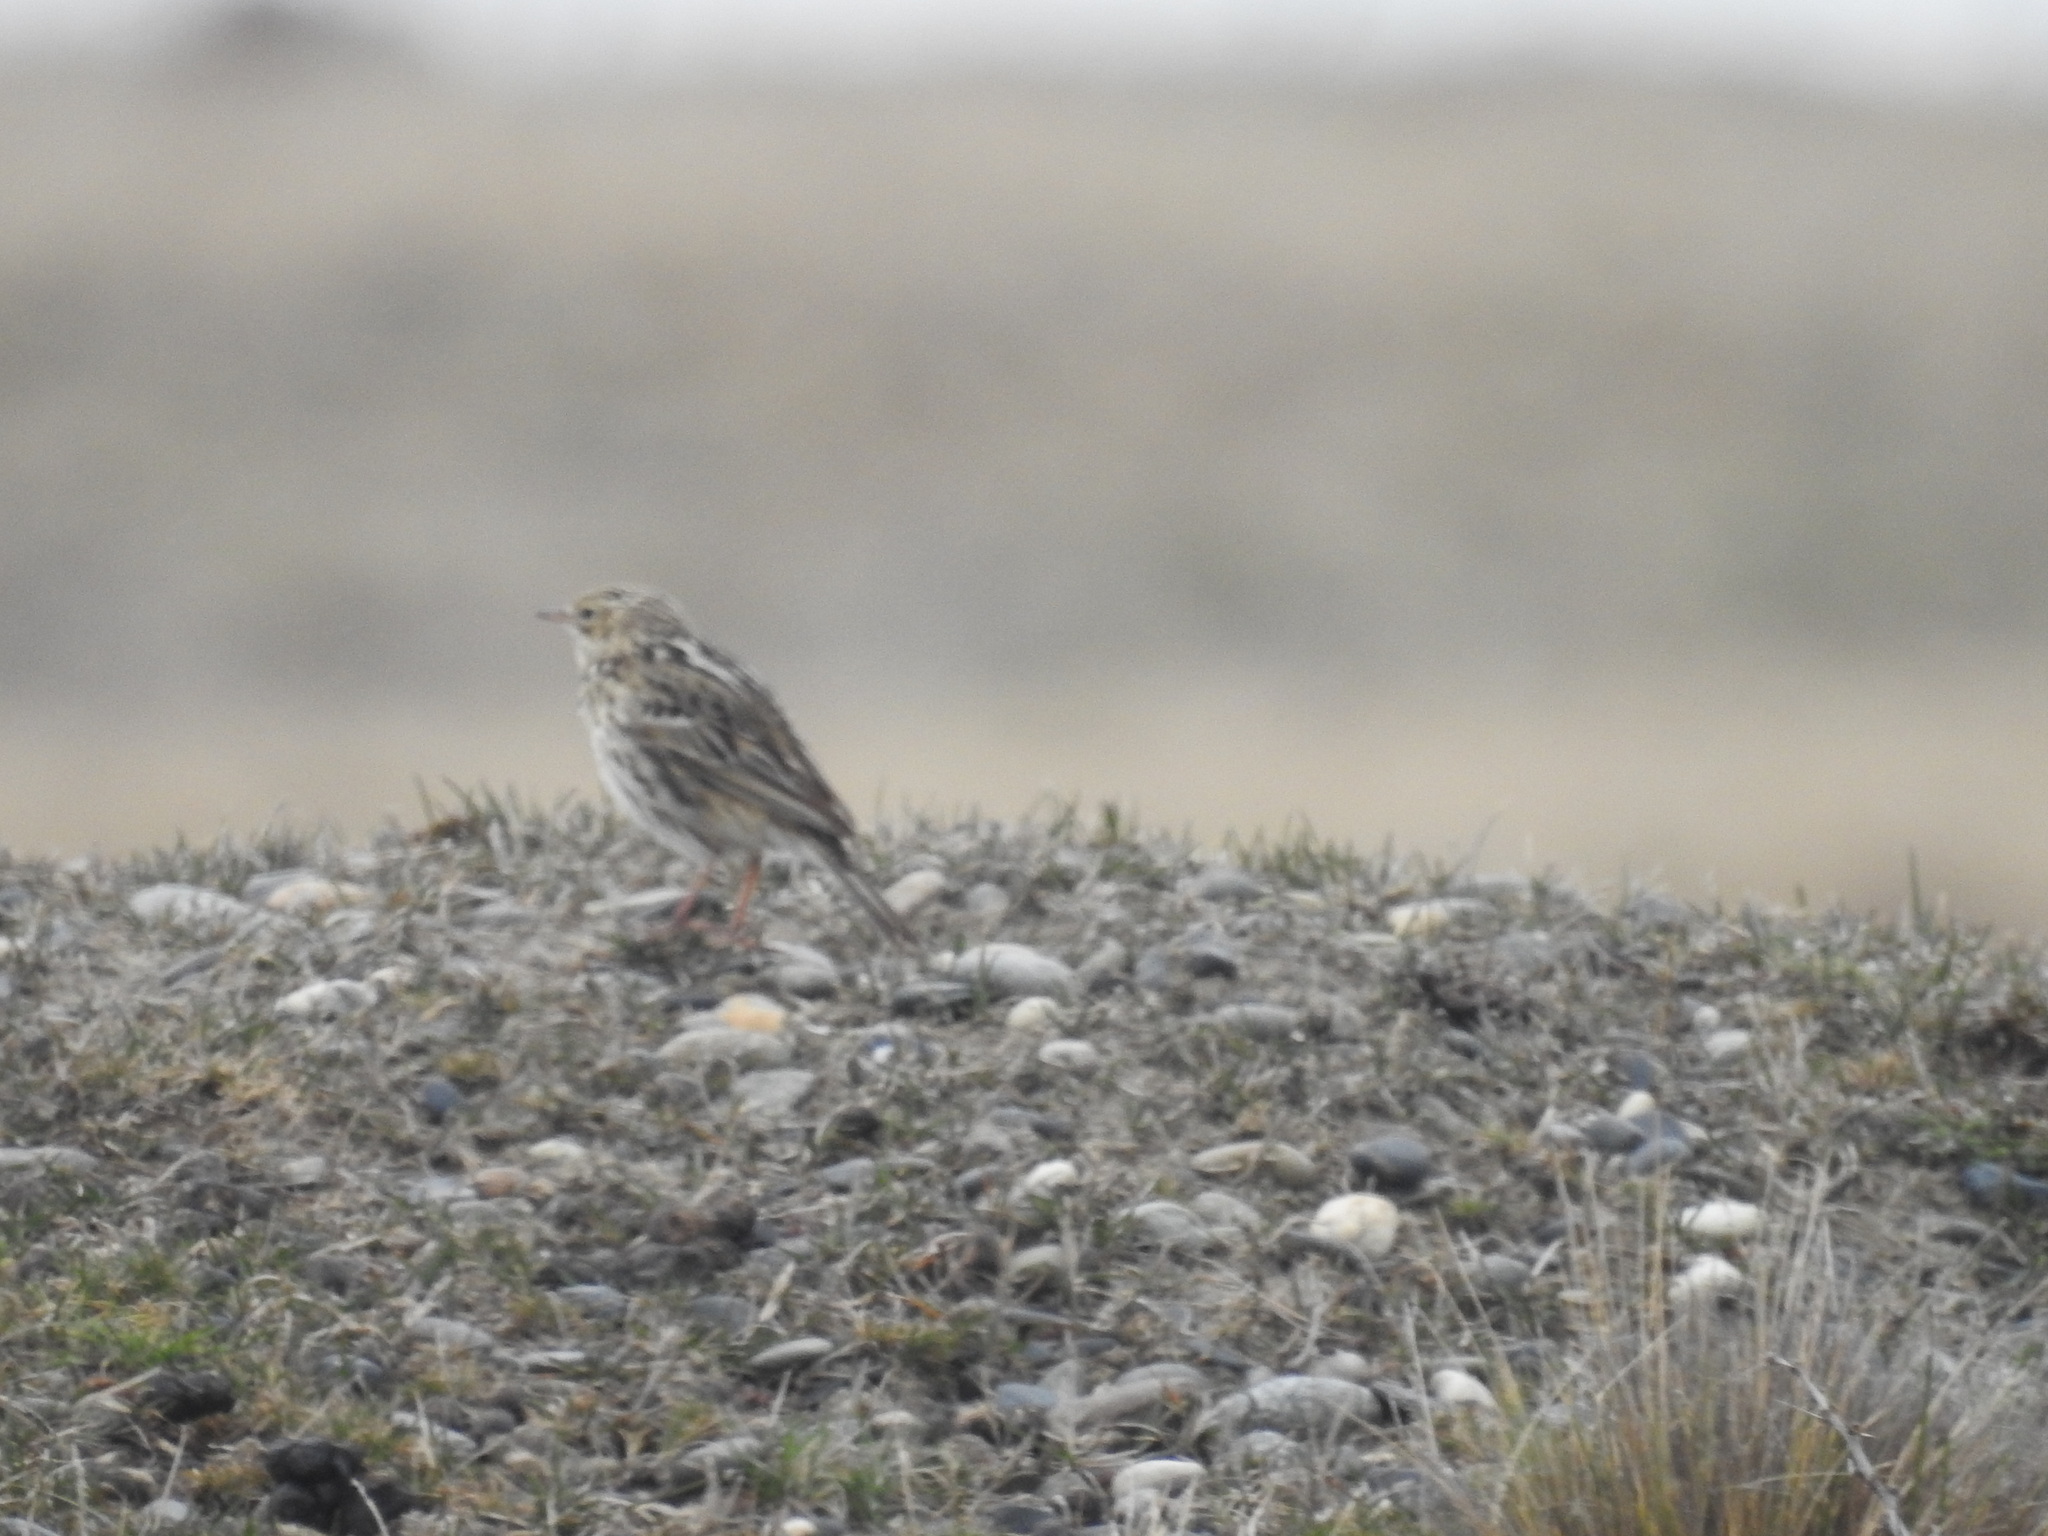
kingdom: Animalia
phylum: Chordata
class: Aves
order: Passeriformes
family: Motacillidae
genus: Anthus
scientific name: Anthus correndera
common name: Correndera pipit
